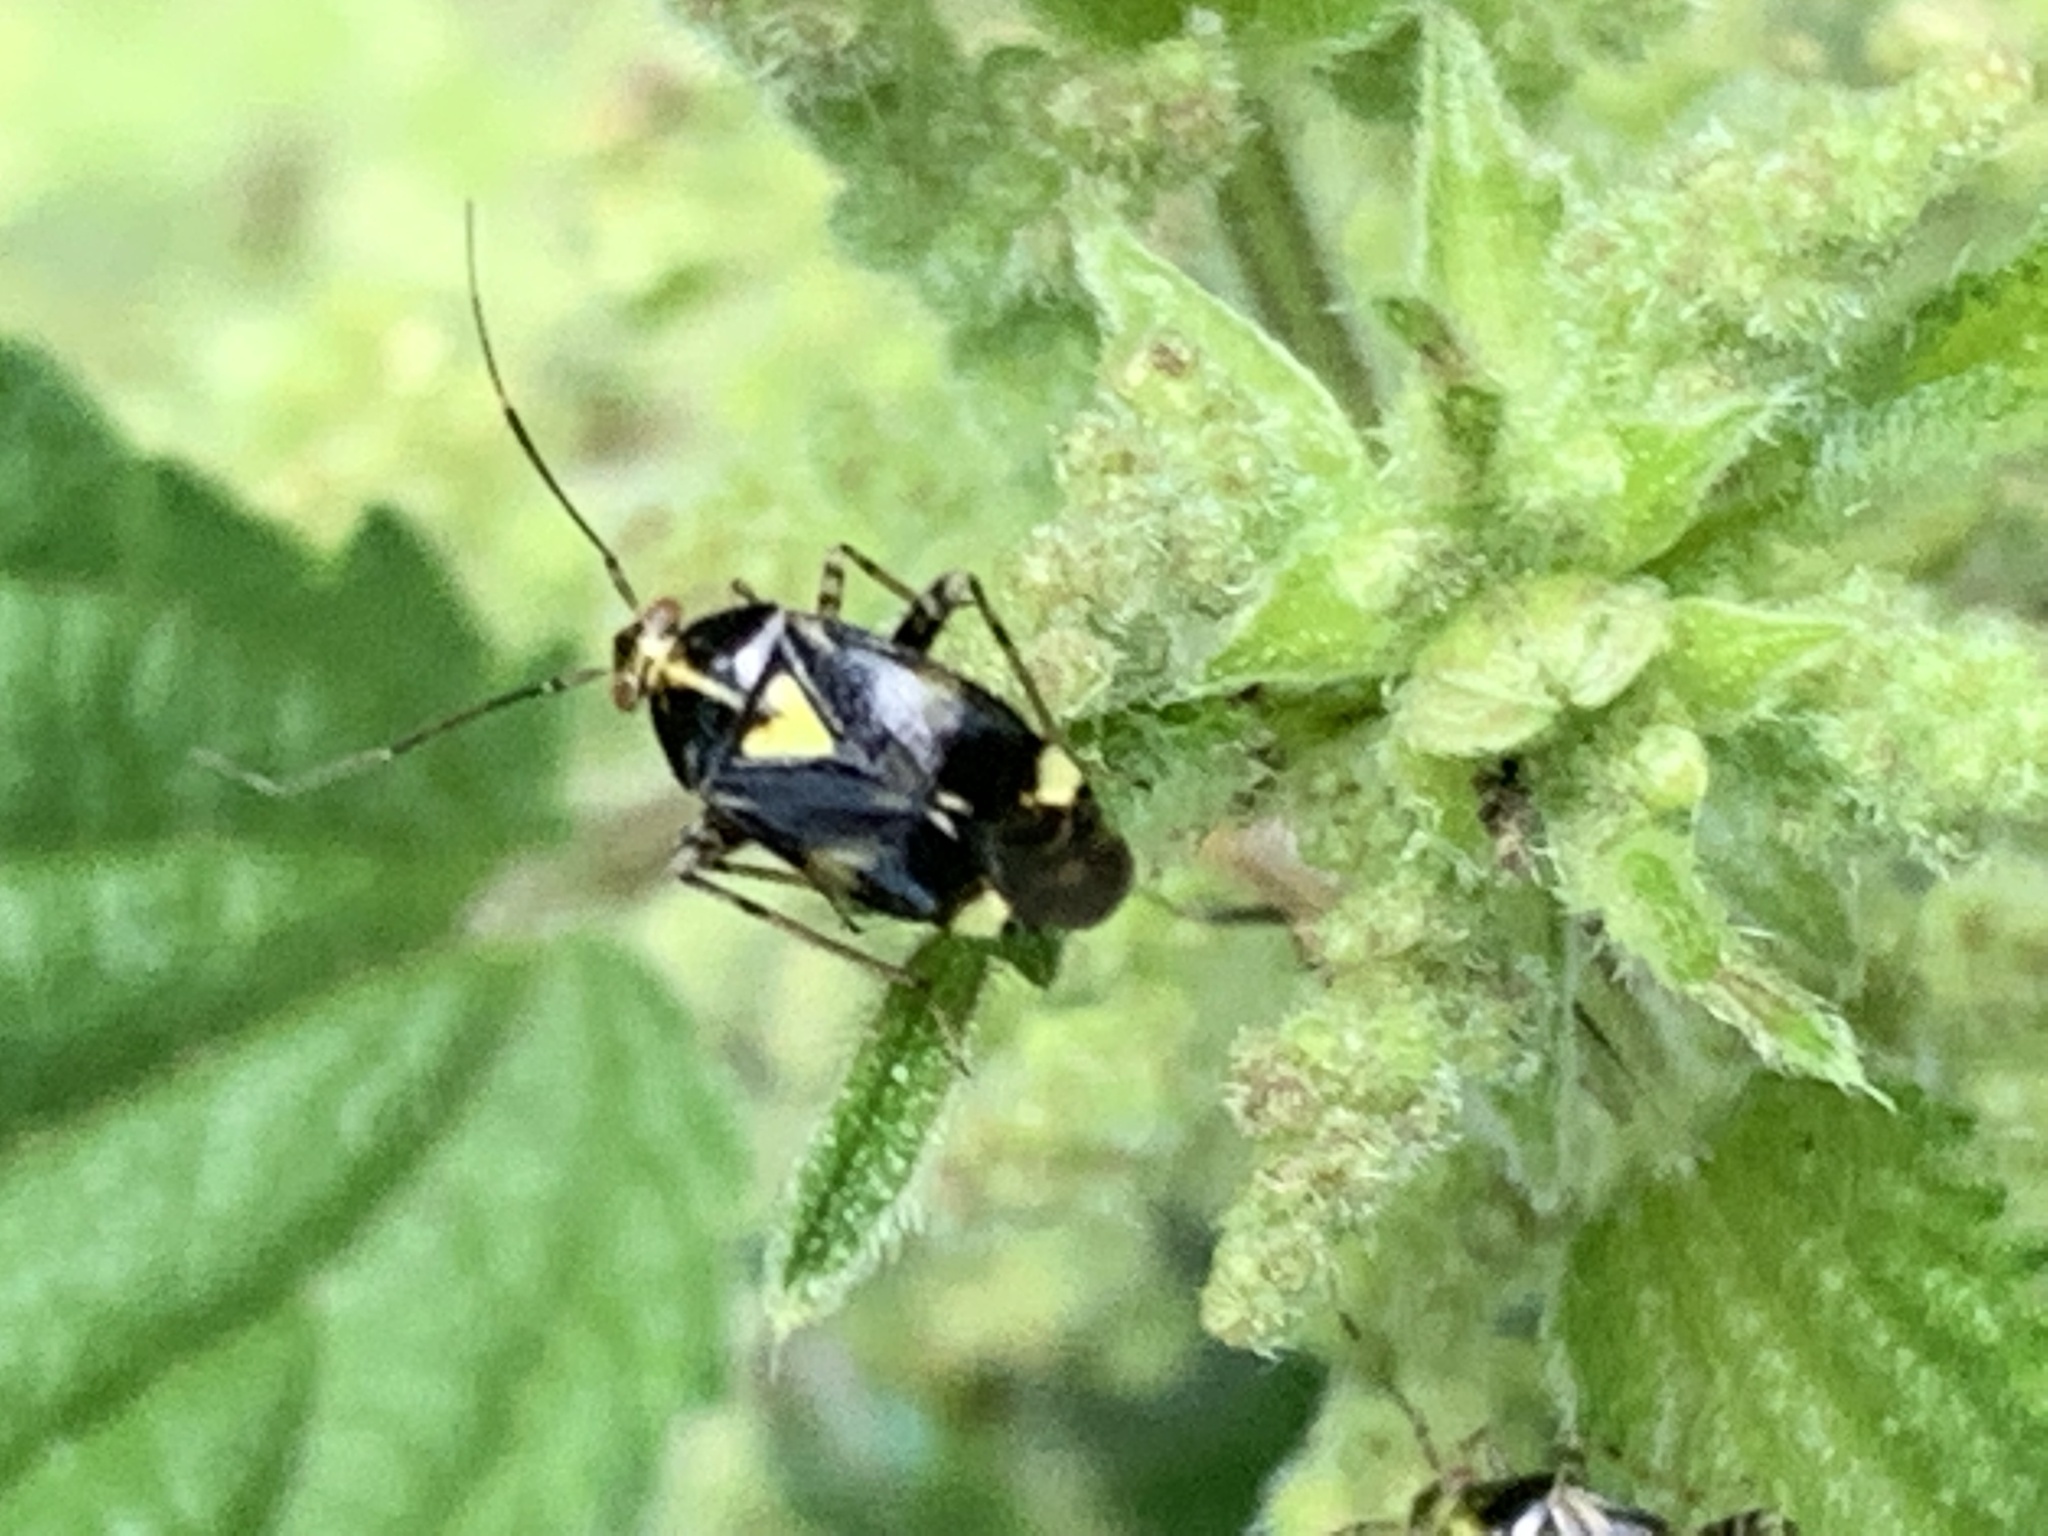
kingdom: Animalia
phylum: Arthropoda
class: Insecta
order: Hemiptera
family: Miridae
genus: Liocoris
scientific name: Liocoris tripustulatus
